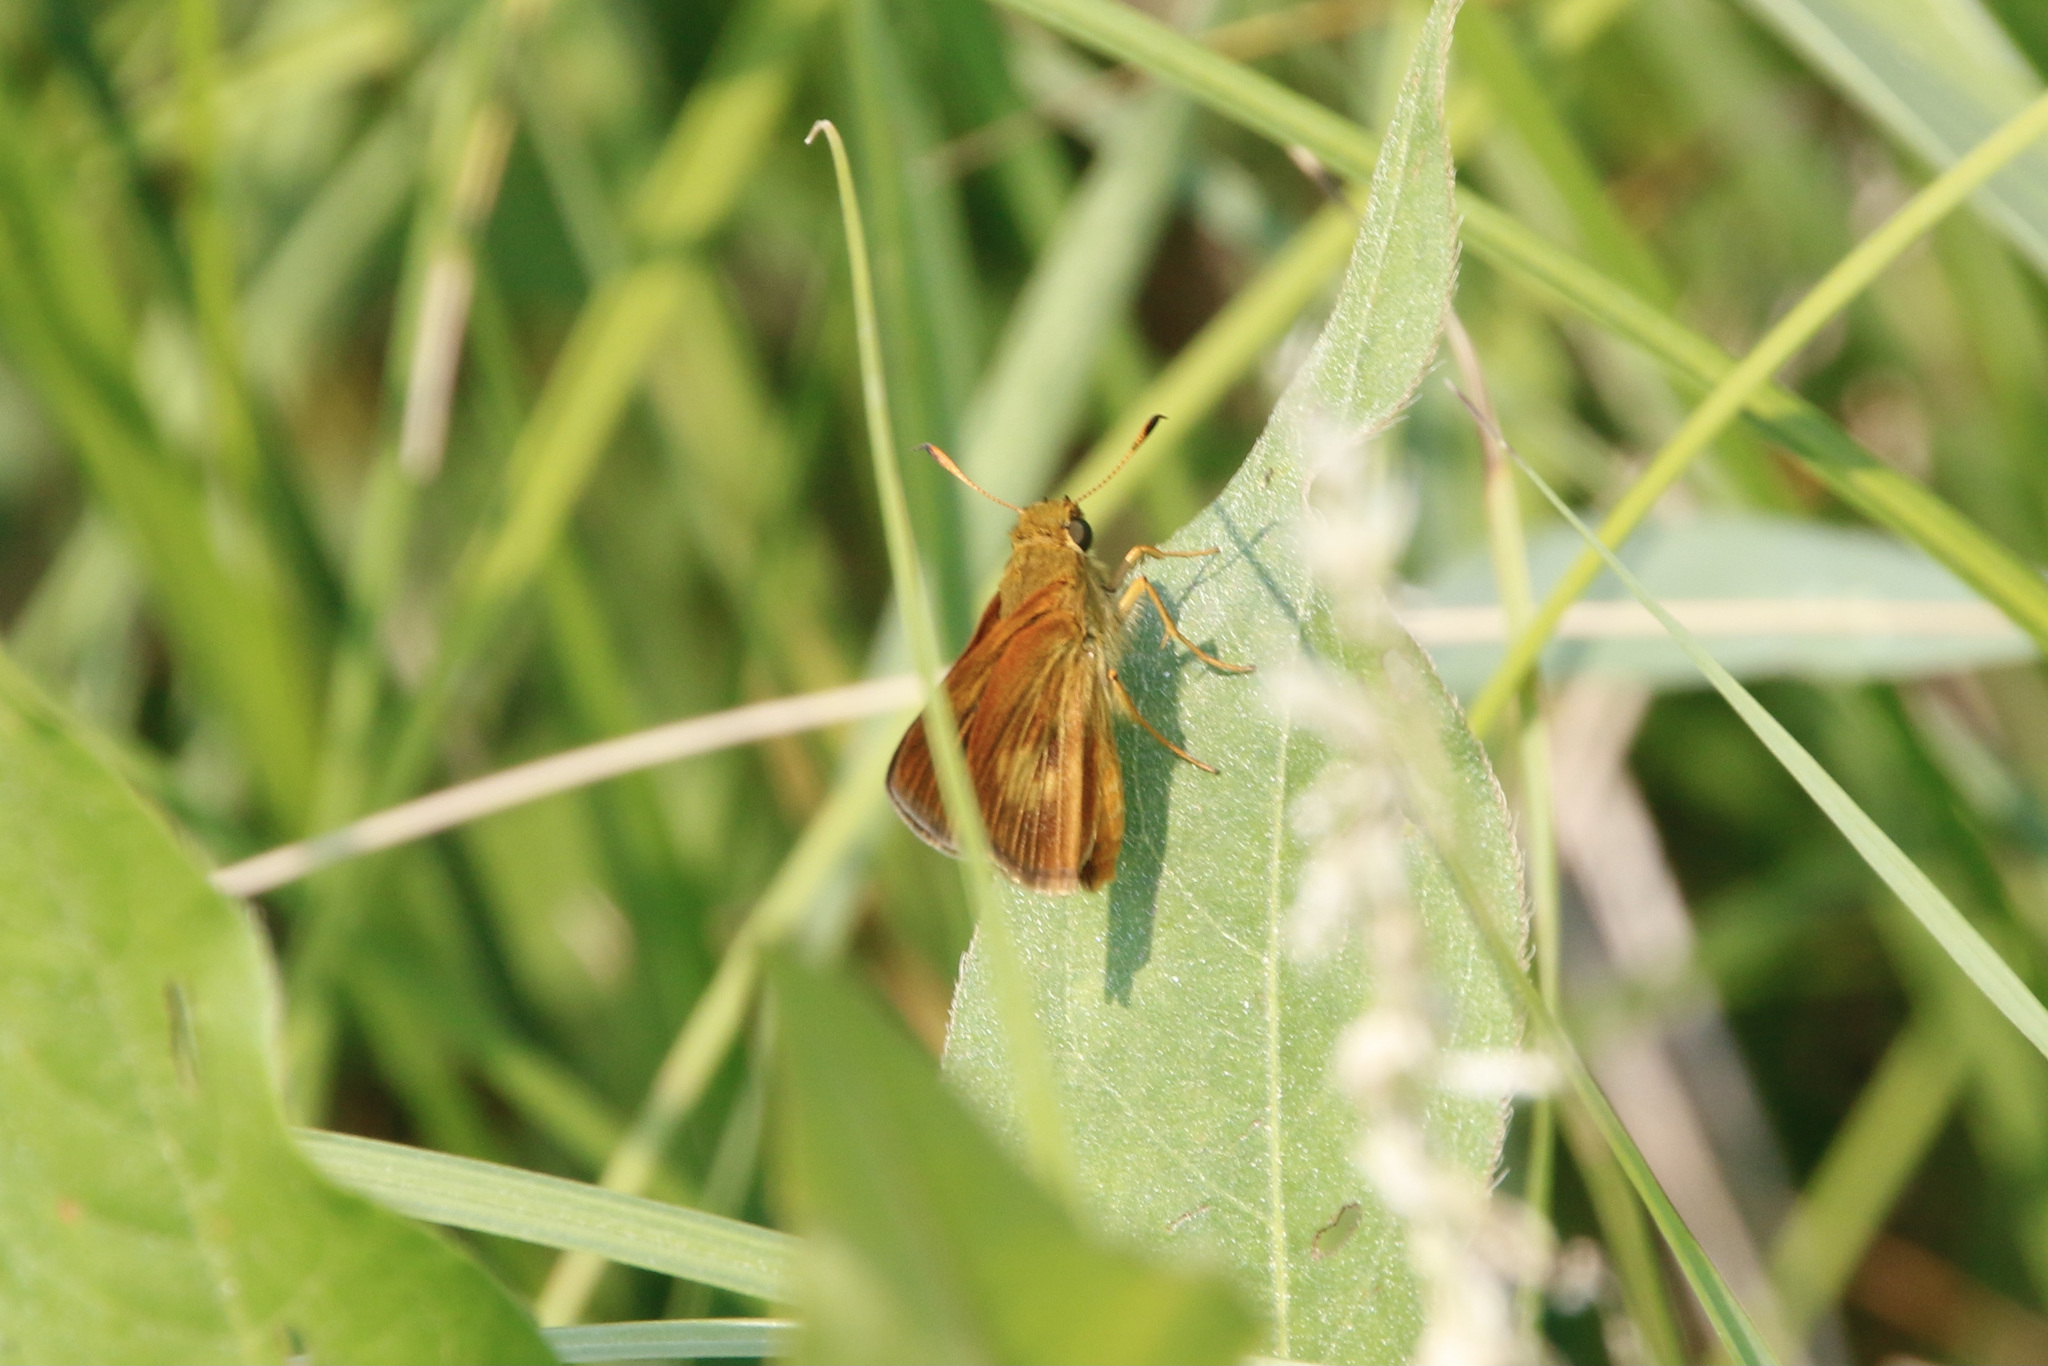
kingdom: Animalia
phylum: Arthropoda
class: Insecta
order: Lepidoptera
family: Hesperiidae
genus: Euphyes
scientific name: Euphyes conspicua
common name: Black dash
